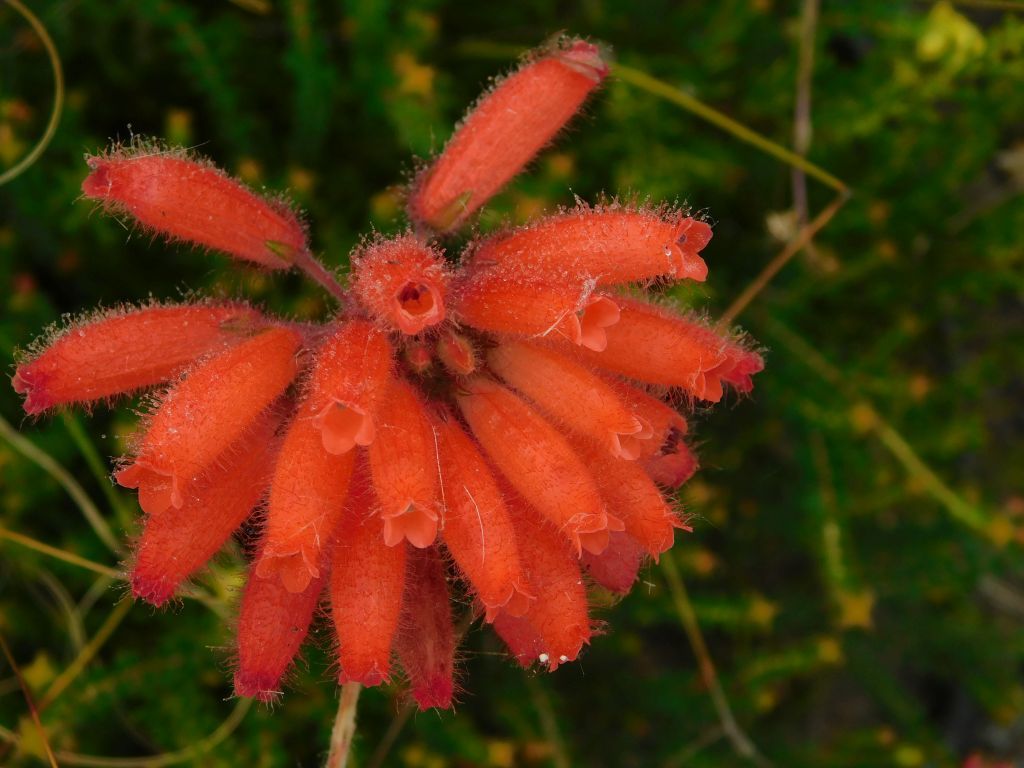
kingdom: Plantae
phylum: Tracheophyta
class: Magnoliopsida
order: Ericales
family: Ericaceae
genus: Erica
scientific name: Erica cerinthoides
